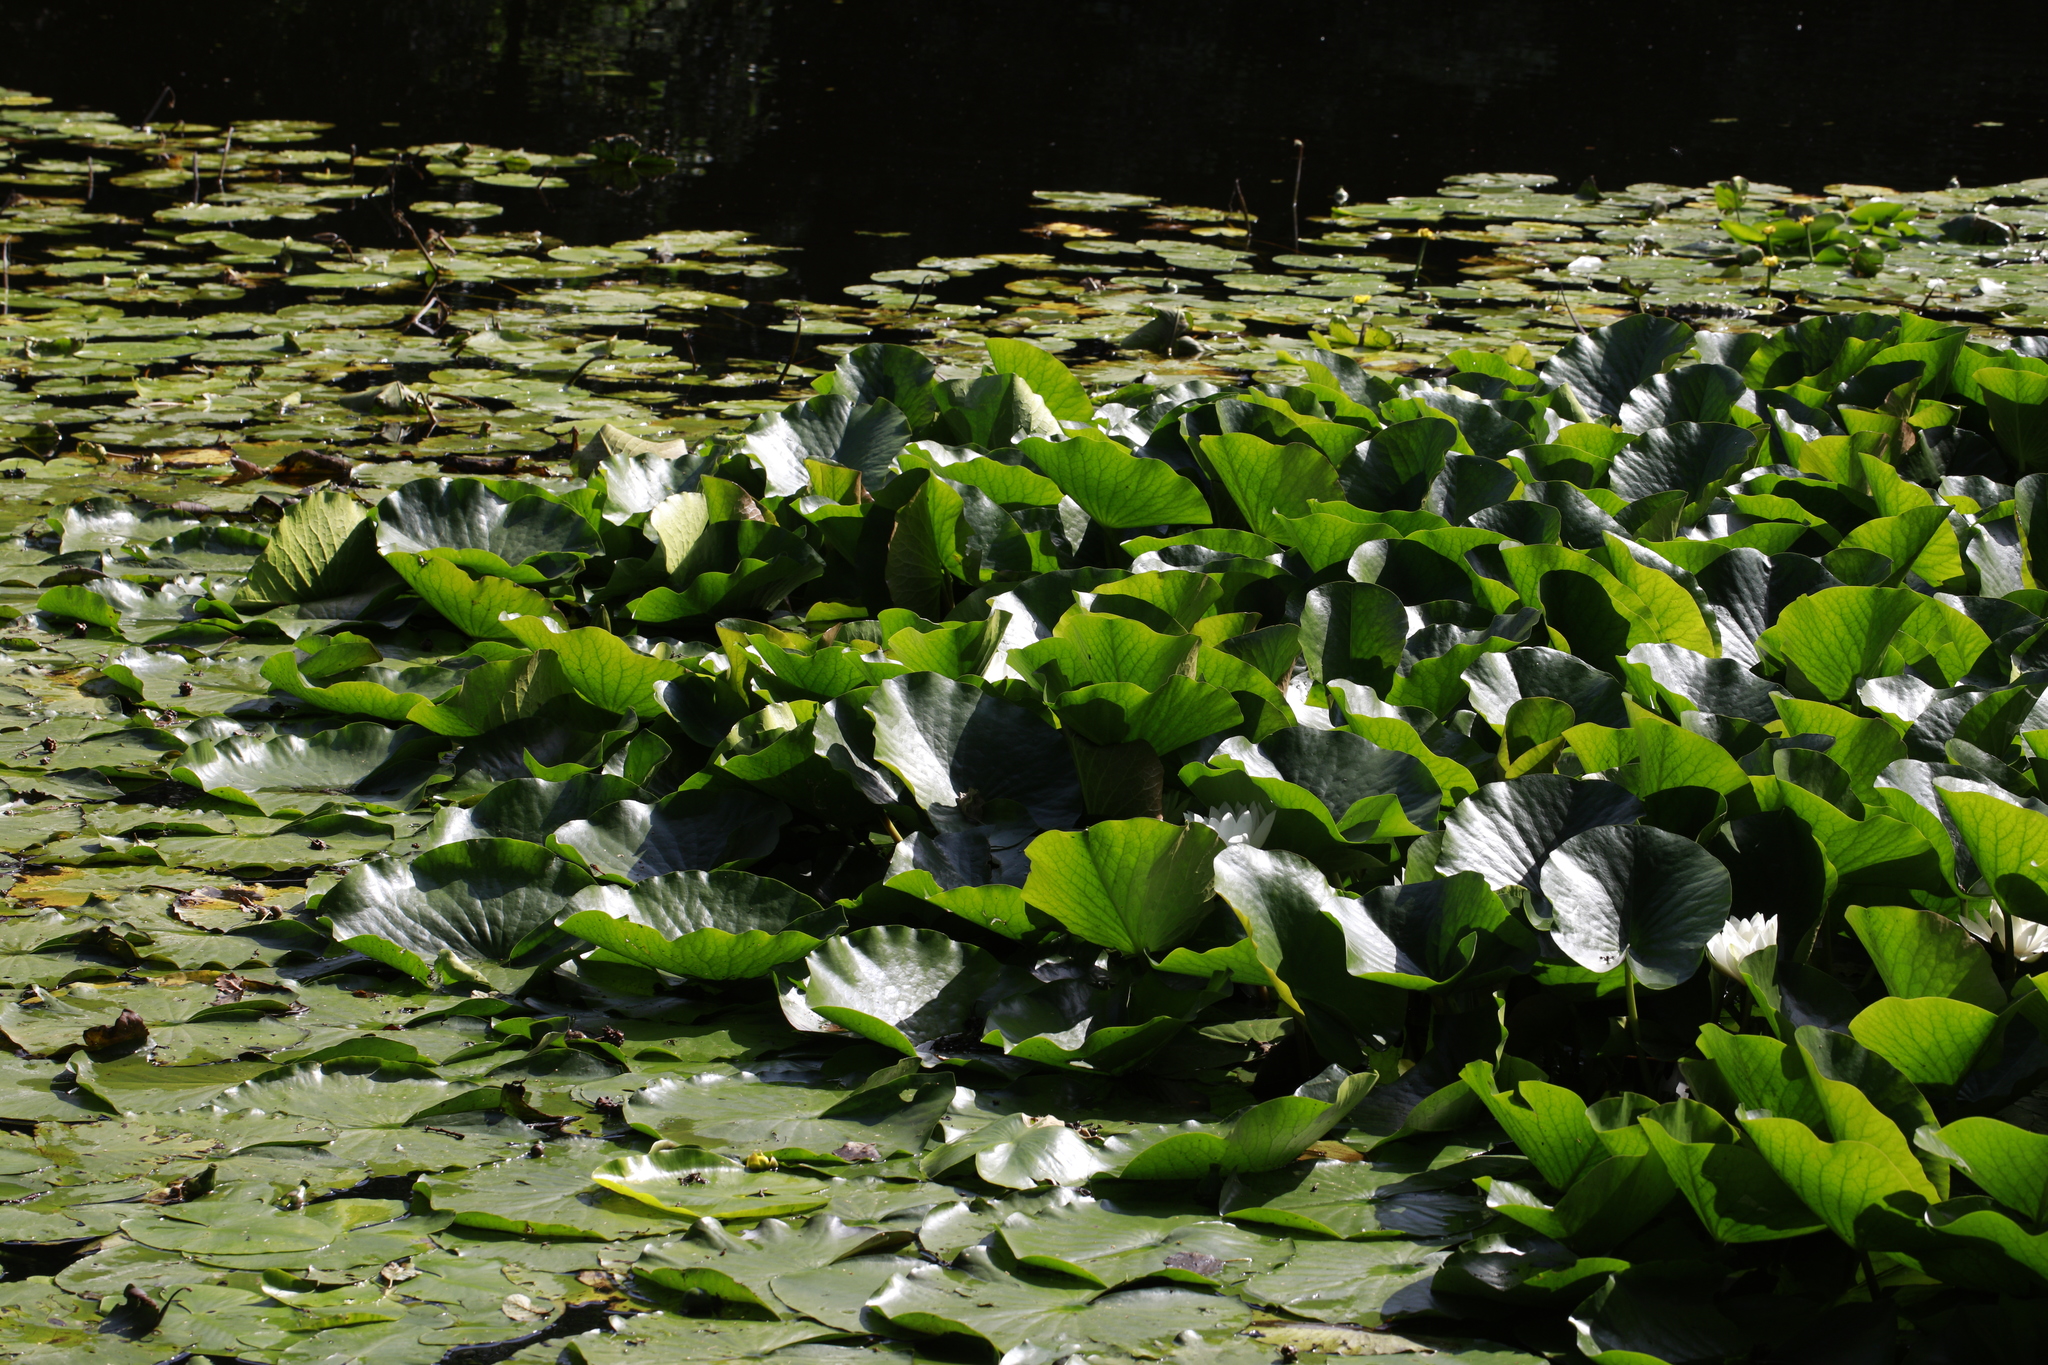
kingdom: Plantae
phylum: Tracheophyta
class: Magnoliopsida
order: Nymphaeales
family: Nymphaeaceae
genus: Nymphaea
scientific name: Nymphaea alba
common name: White water-lily
